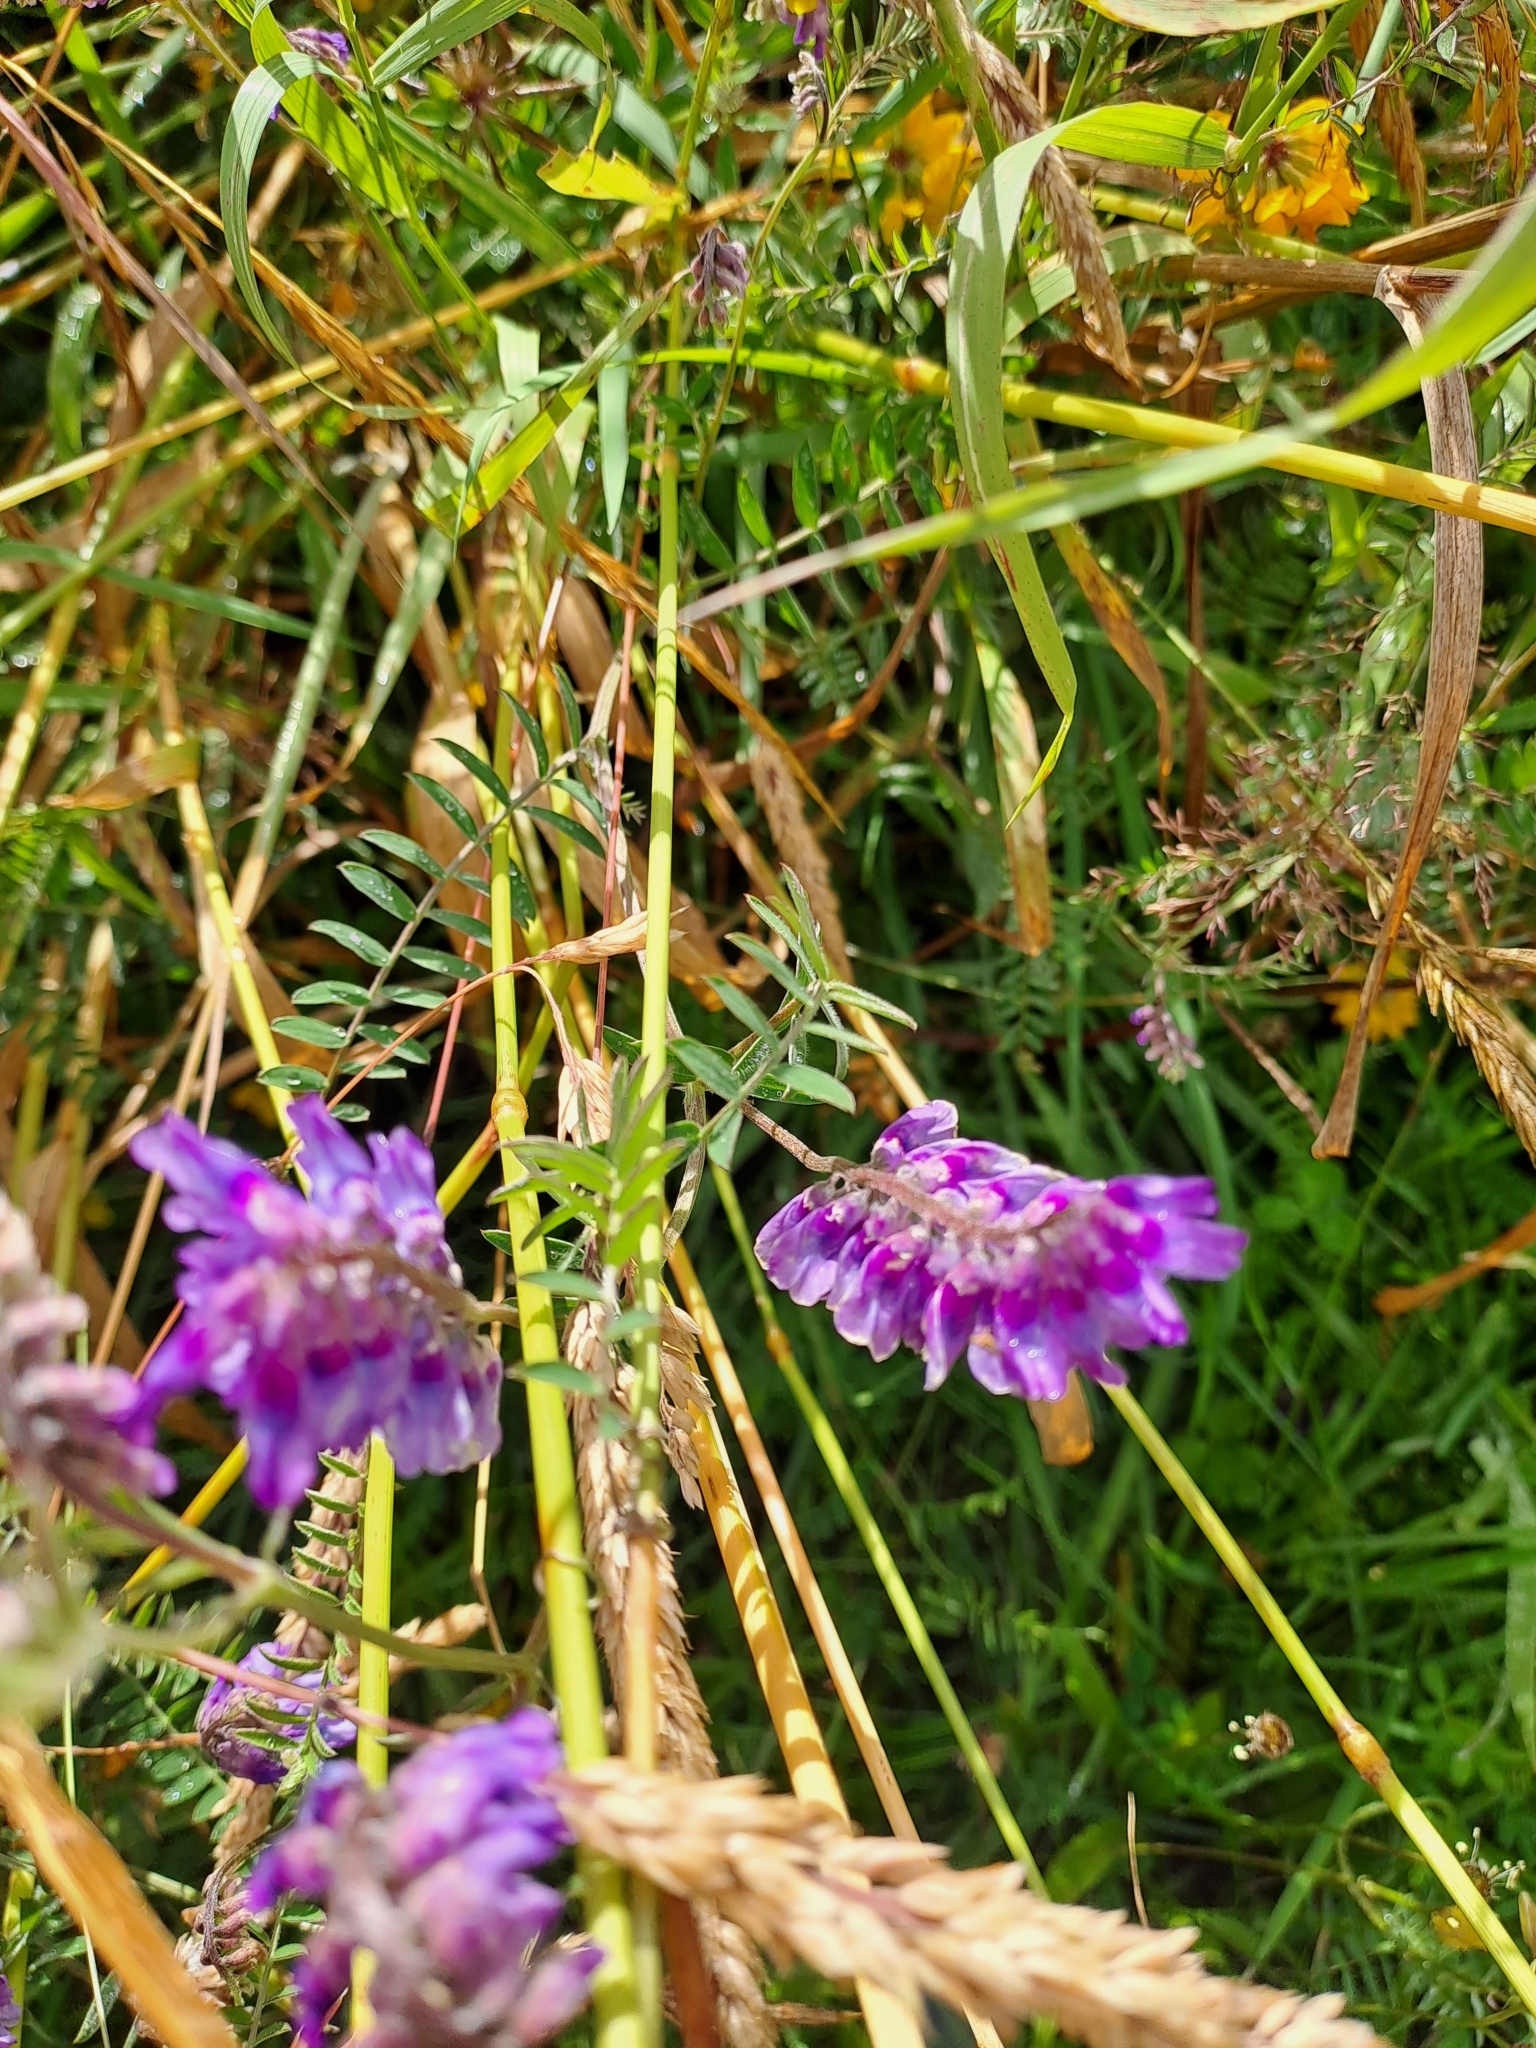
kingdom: Plantae
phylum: Tracheophyta
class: Magnoliopsida
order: Fabales
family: Fabaceae
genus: Vicia
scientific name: Vicia cracca
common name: Bird vetch
